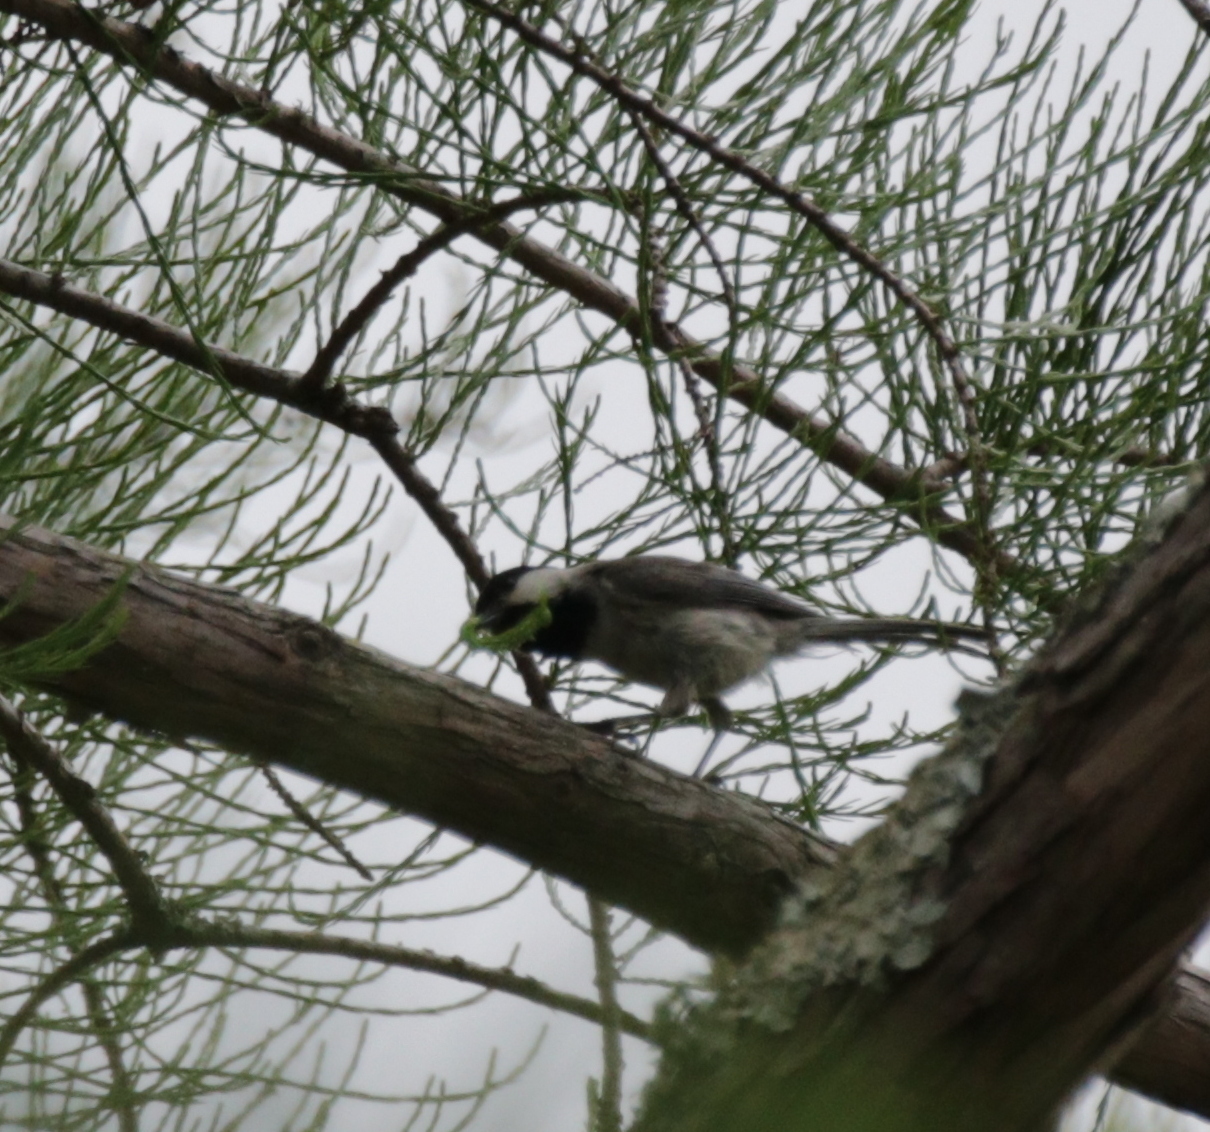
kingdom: Animalia
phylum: Chordata
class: Aves
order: Passeriformes
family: Paridae
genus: Poecile
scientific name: Poecile carolinensis
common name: Carolina chickadee
